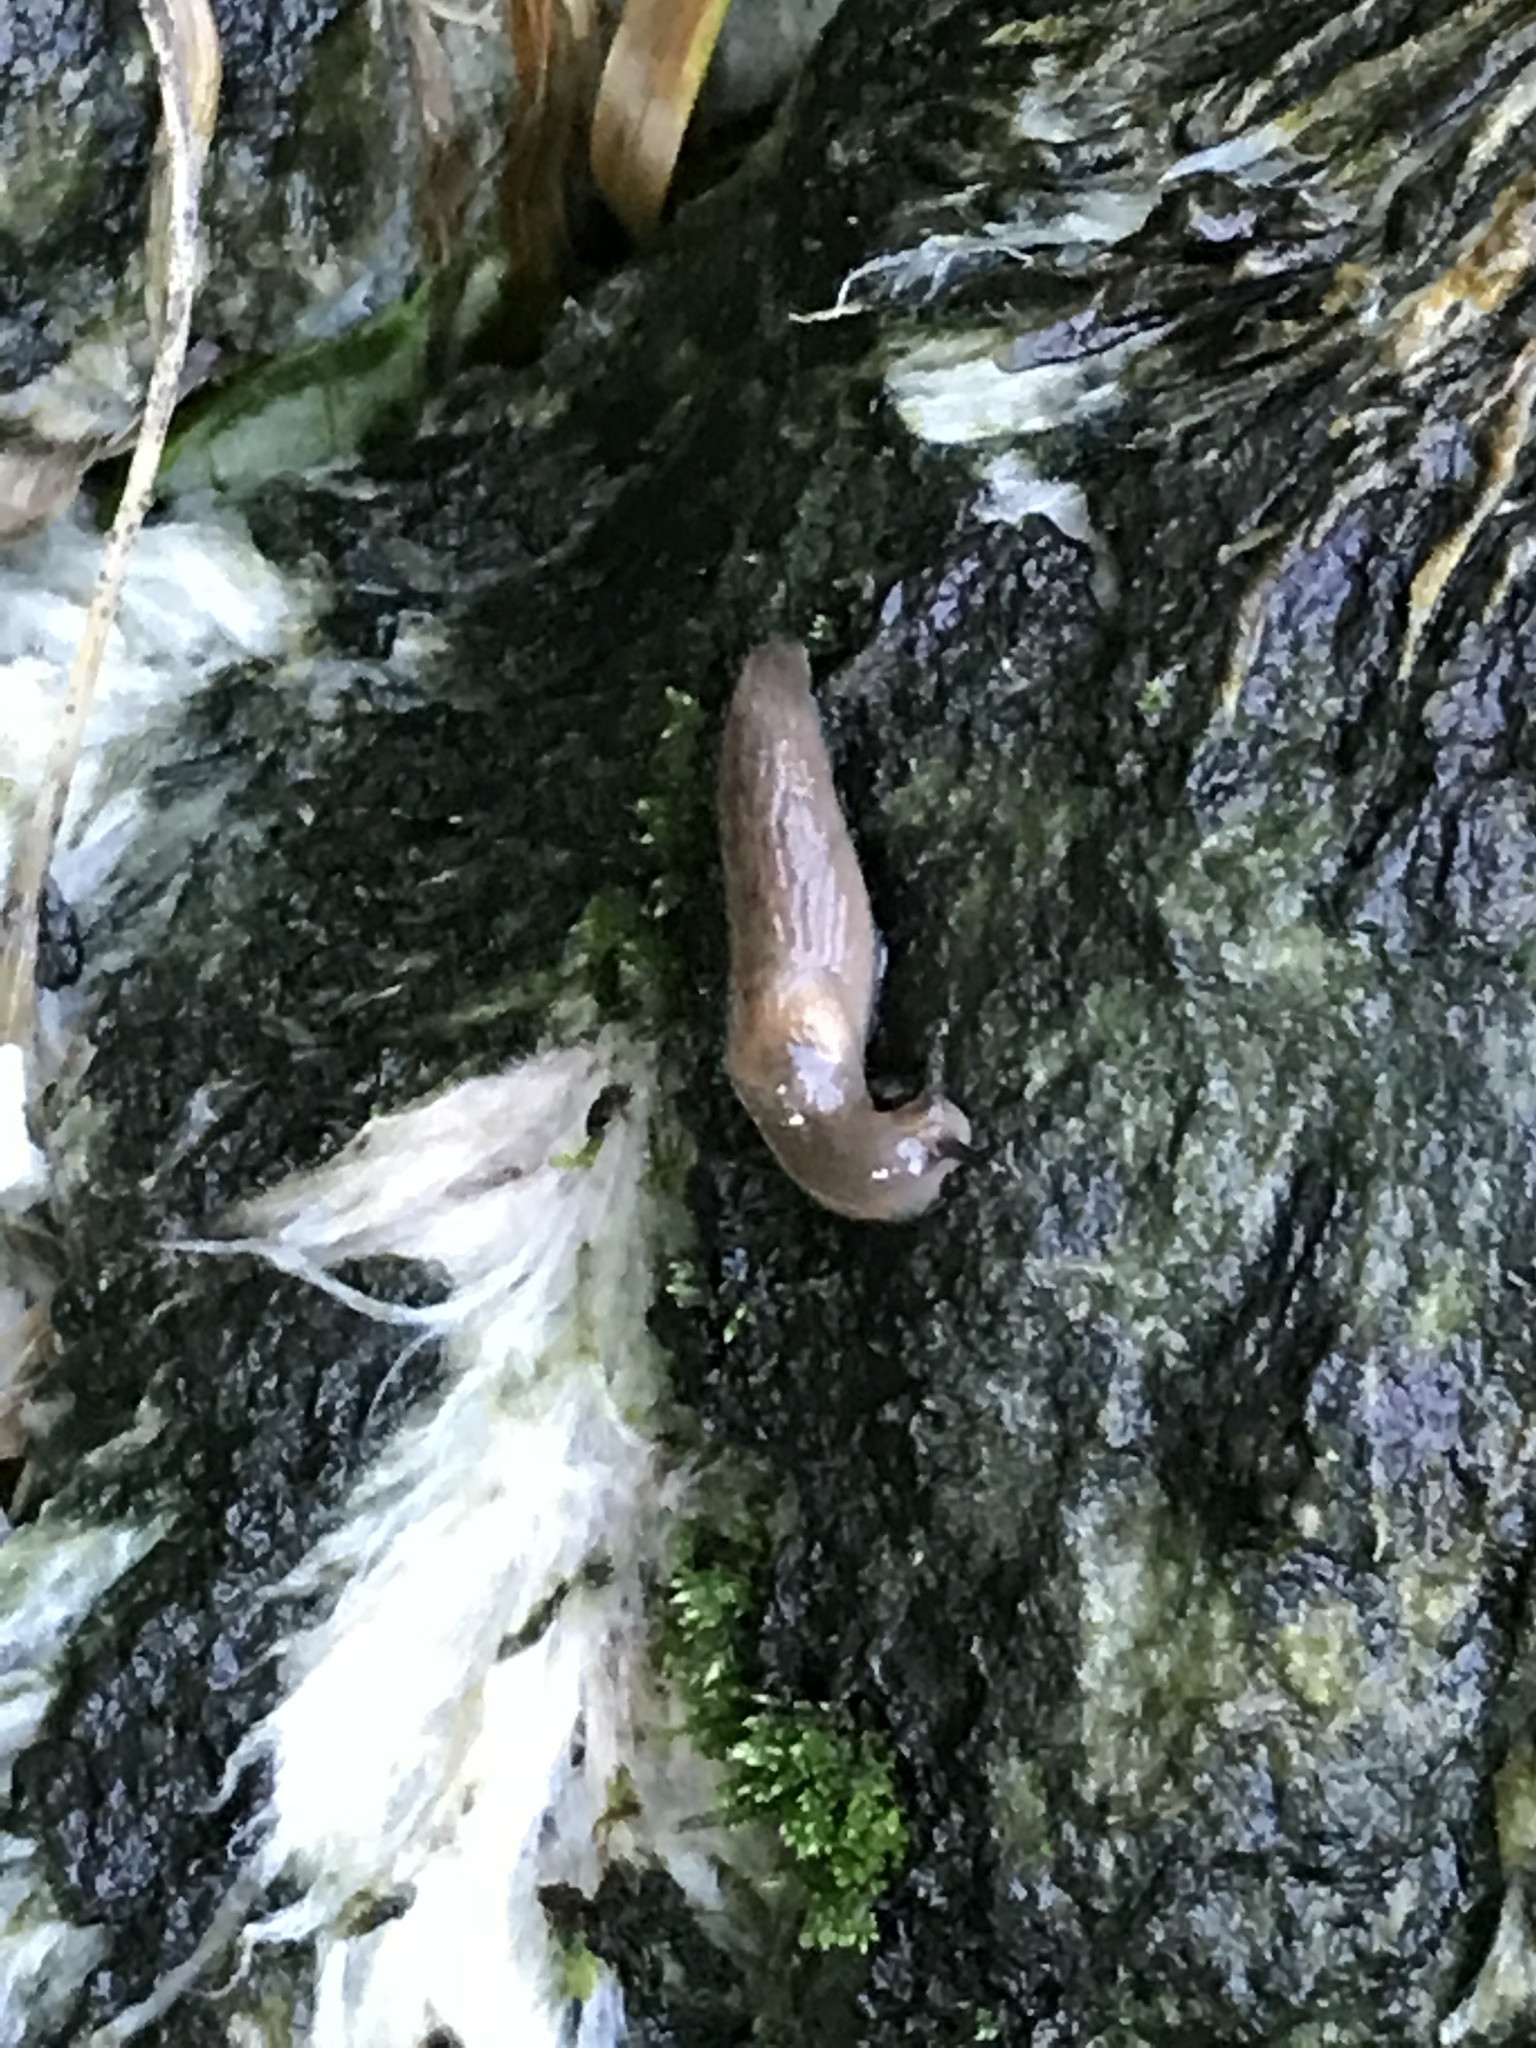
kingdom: Animalia
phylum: Mollusca
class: Gastropoda
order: Stylommatophora
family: Agriolimacidae
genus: Deroceras
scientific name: Deroceras reticulatum
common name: Gray field slug
